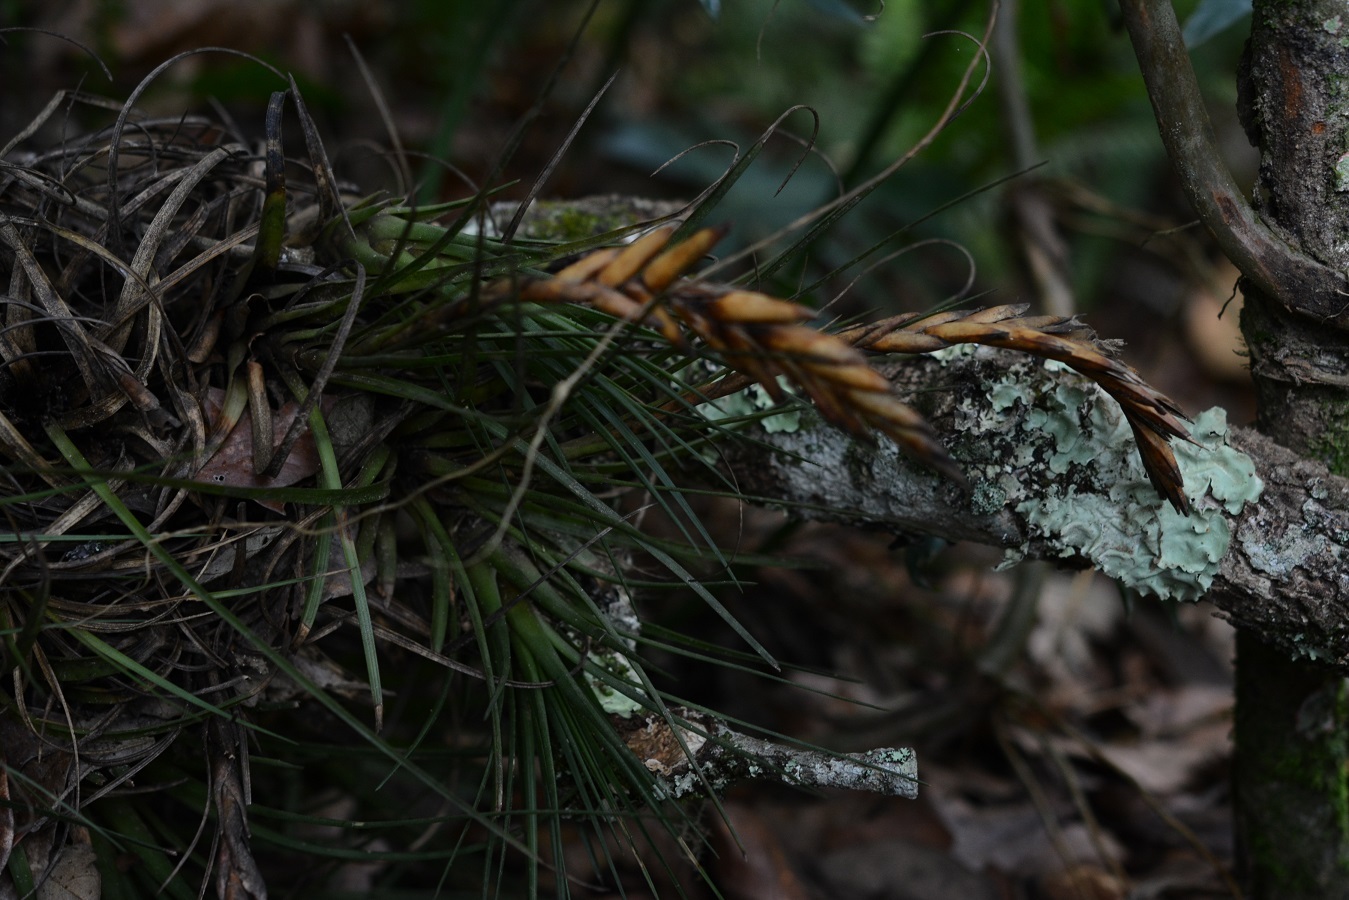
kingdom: Plantae
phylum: Tracheophyta
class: Liliopsida
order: Poales
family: Bromeliaceae
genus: Tillandsia
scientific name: Tillandsia tricolor
